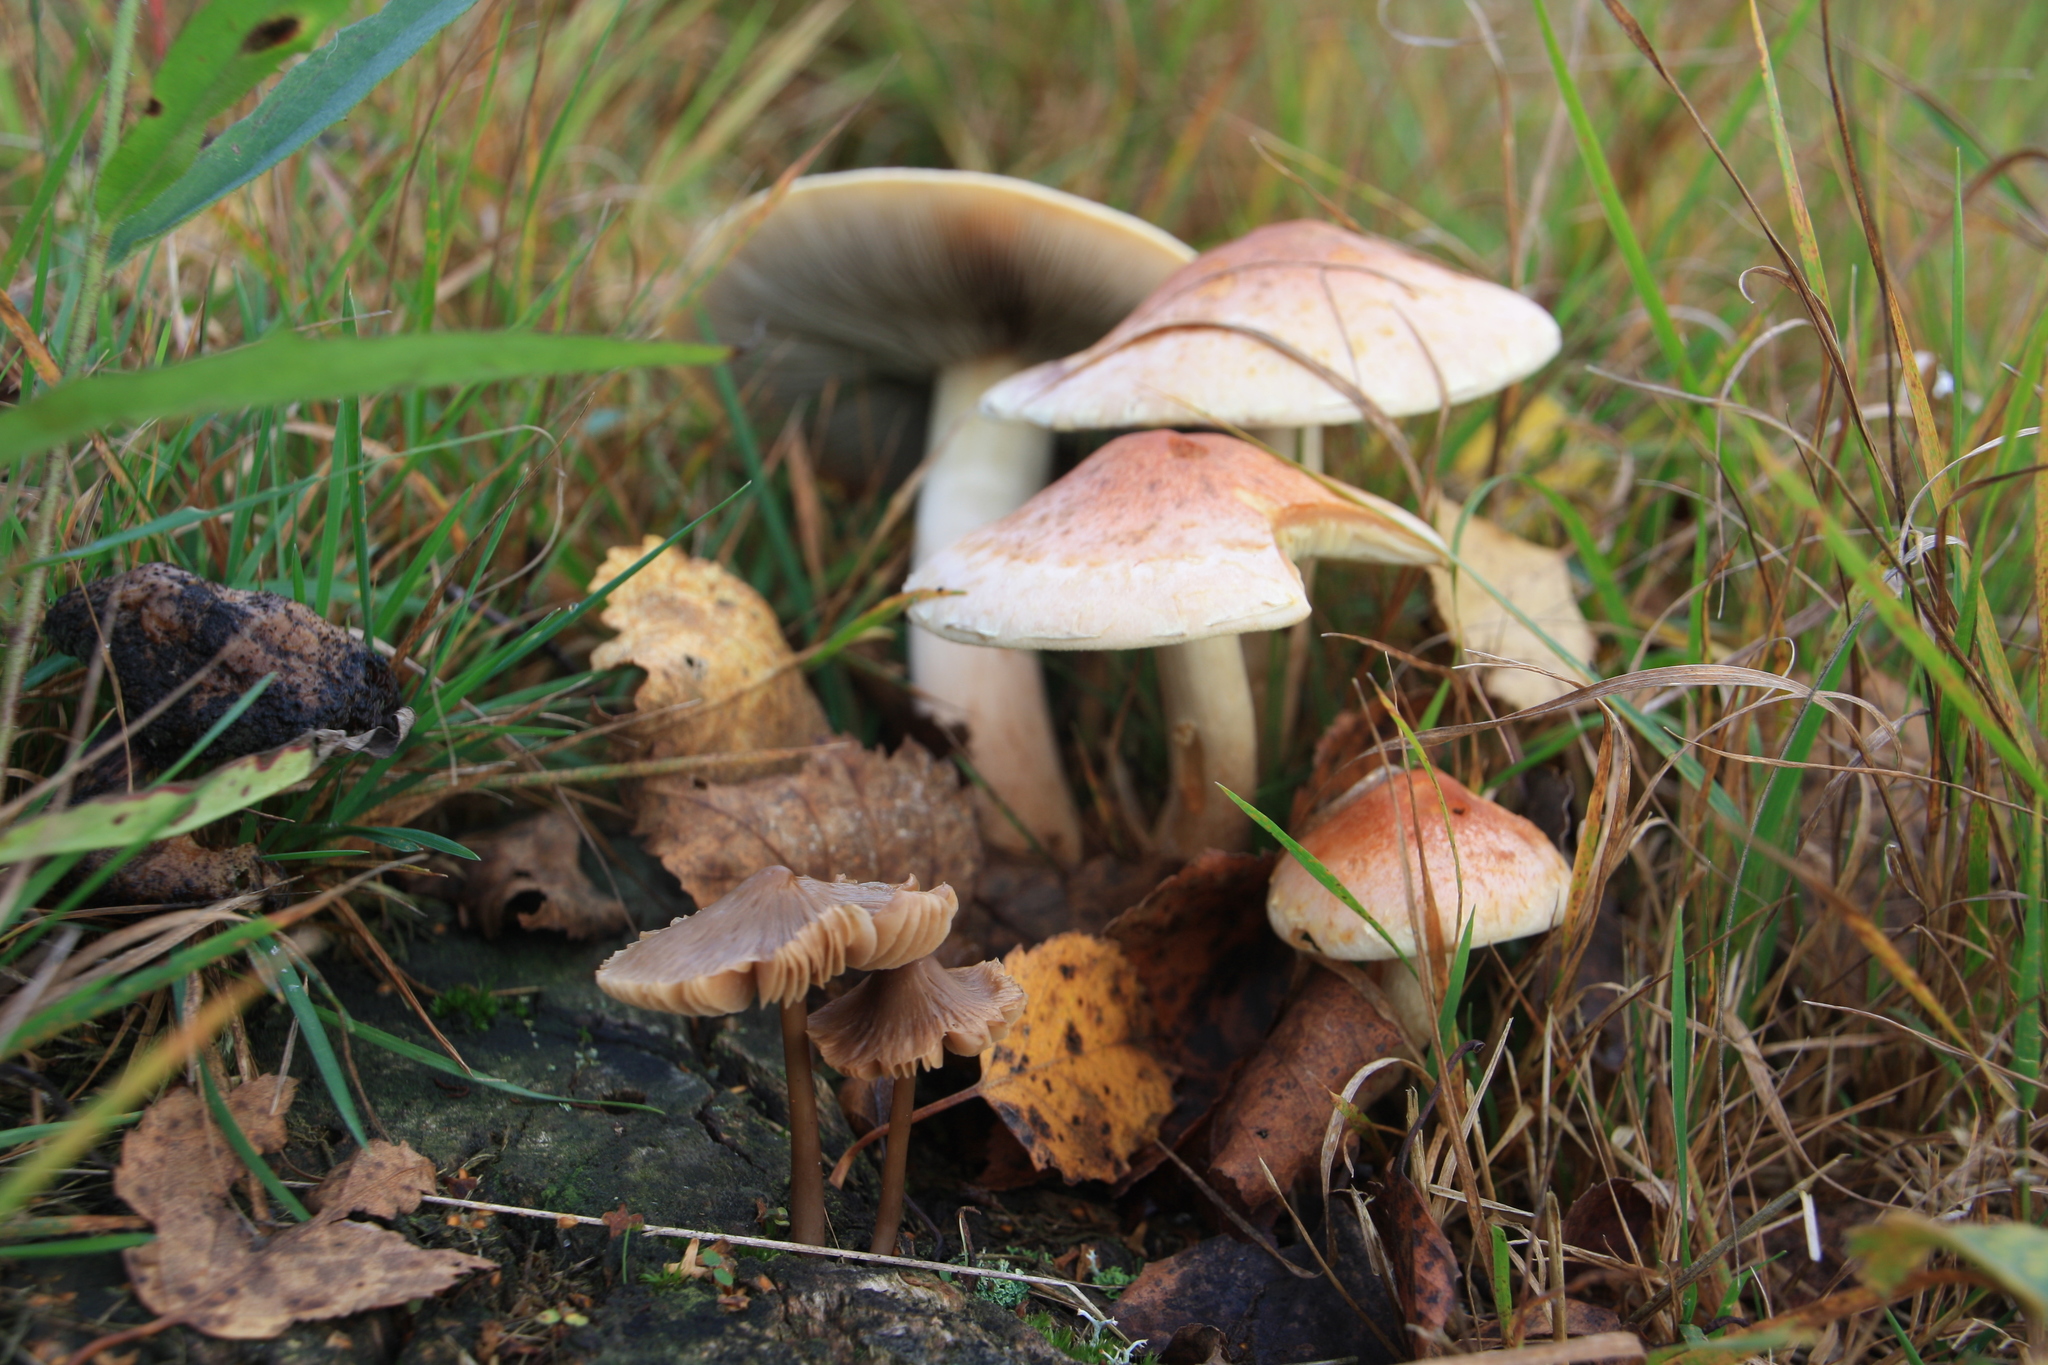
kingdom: Fungi
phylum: Basidiomycota
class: Agaricomycetes
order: Agaricales
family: Strophariaceae
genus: Hypholoma
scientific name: Hypholoma lateritium
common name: Brick caps
